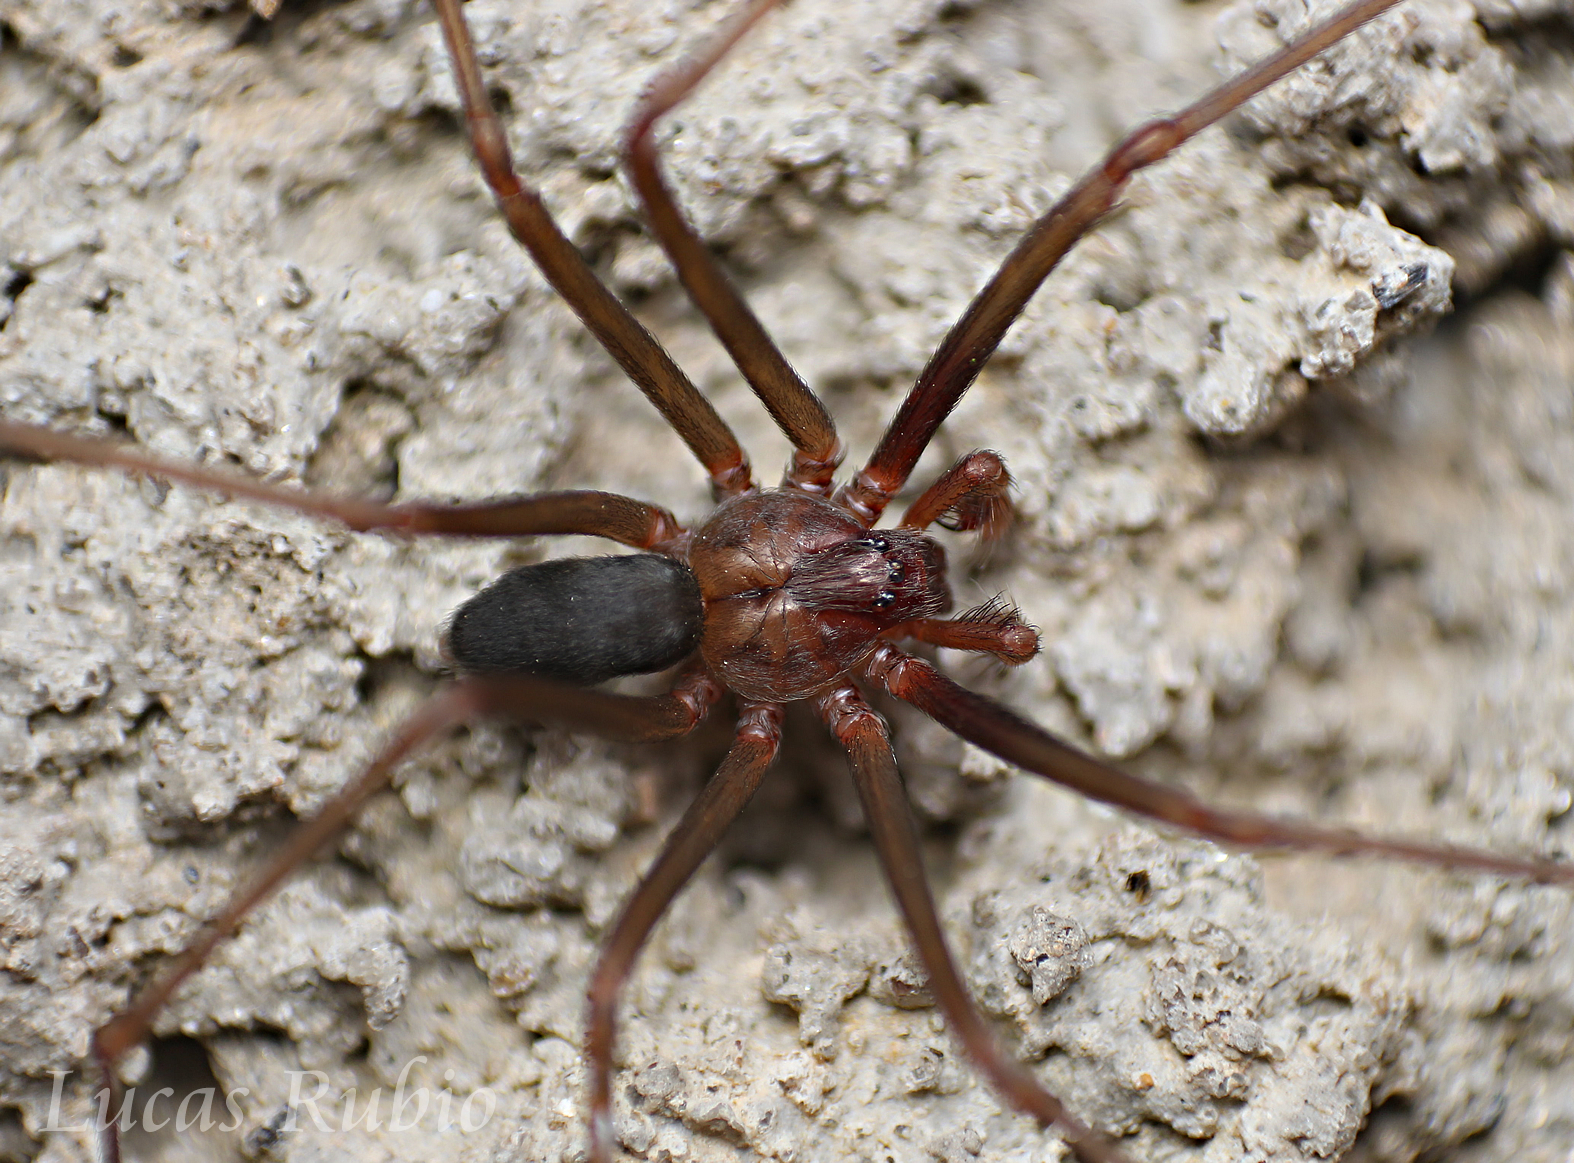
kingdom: Animalia
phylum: Arthropoda
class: Arachnida
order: Araneae
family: Sicariidae
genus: Loxosceles
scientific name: Loxosceles
